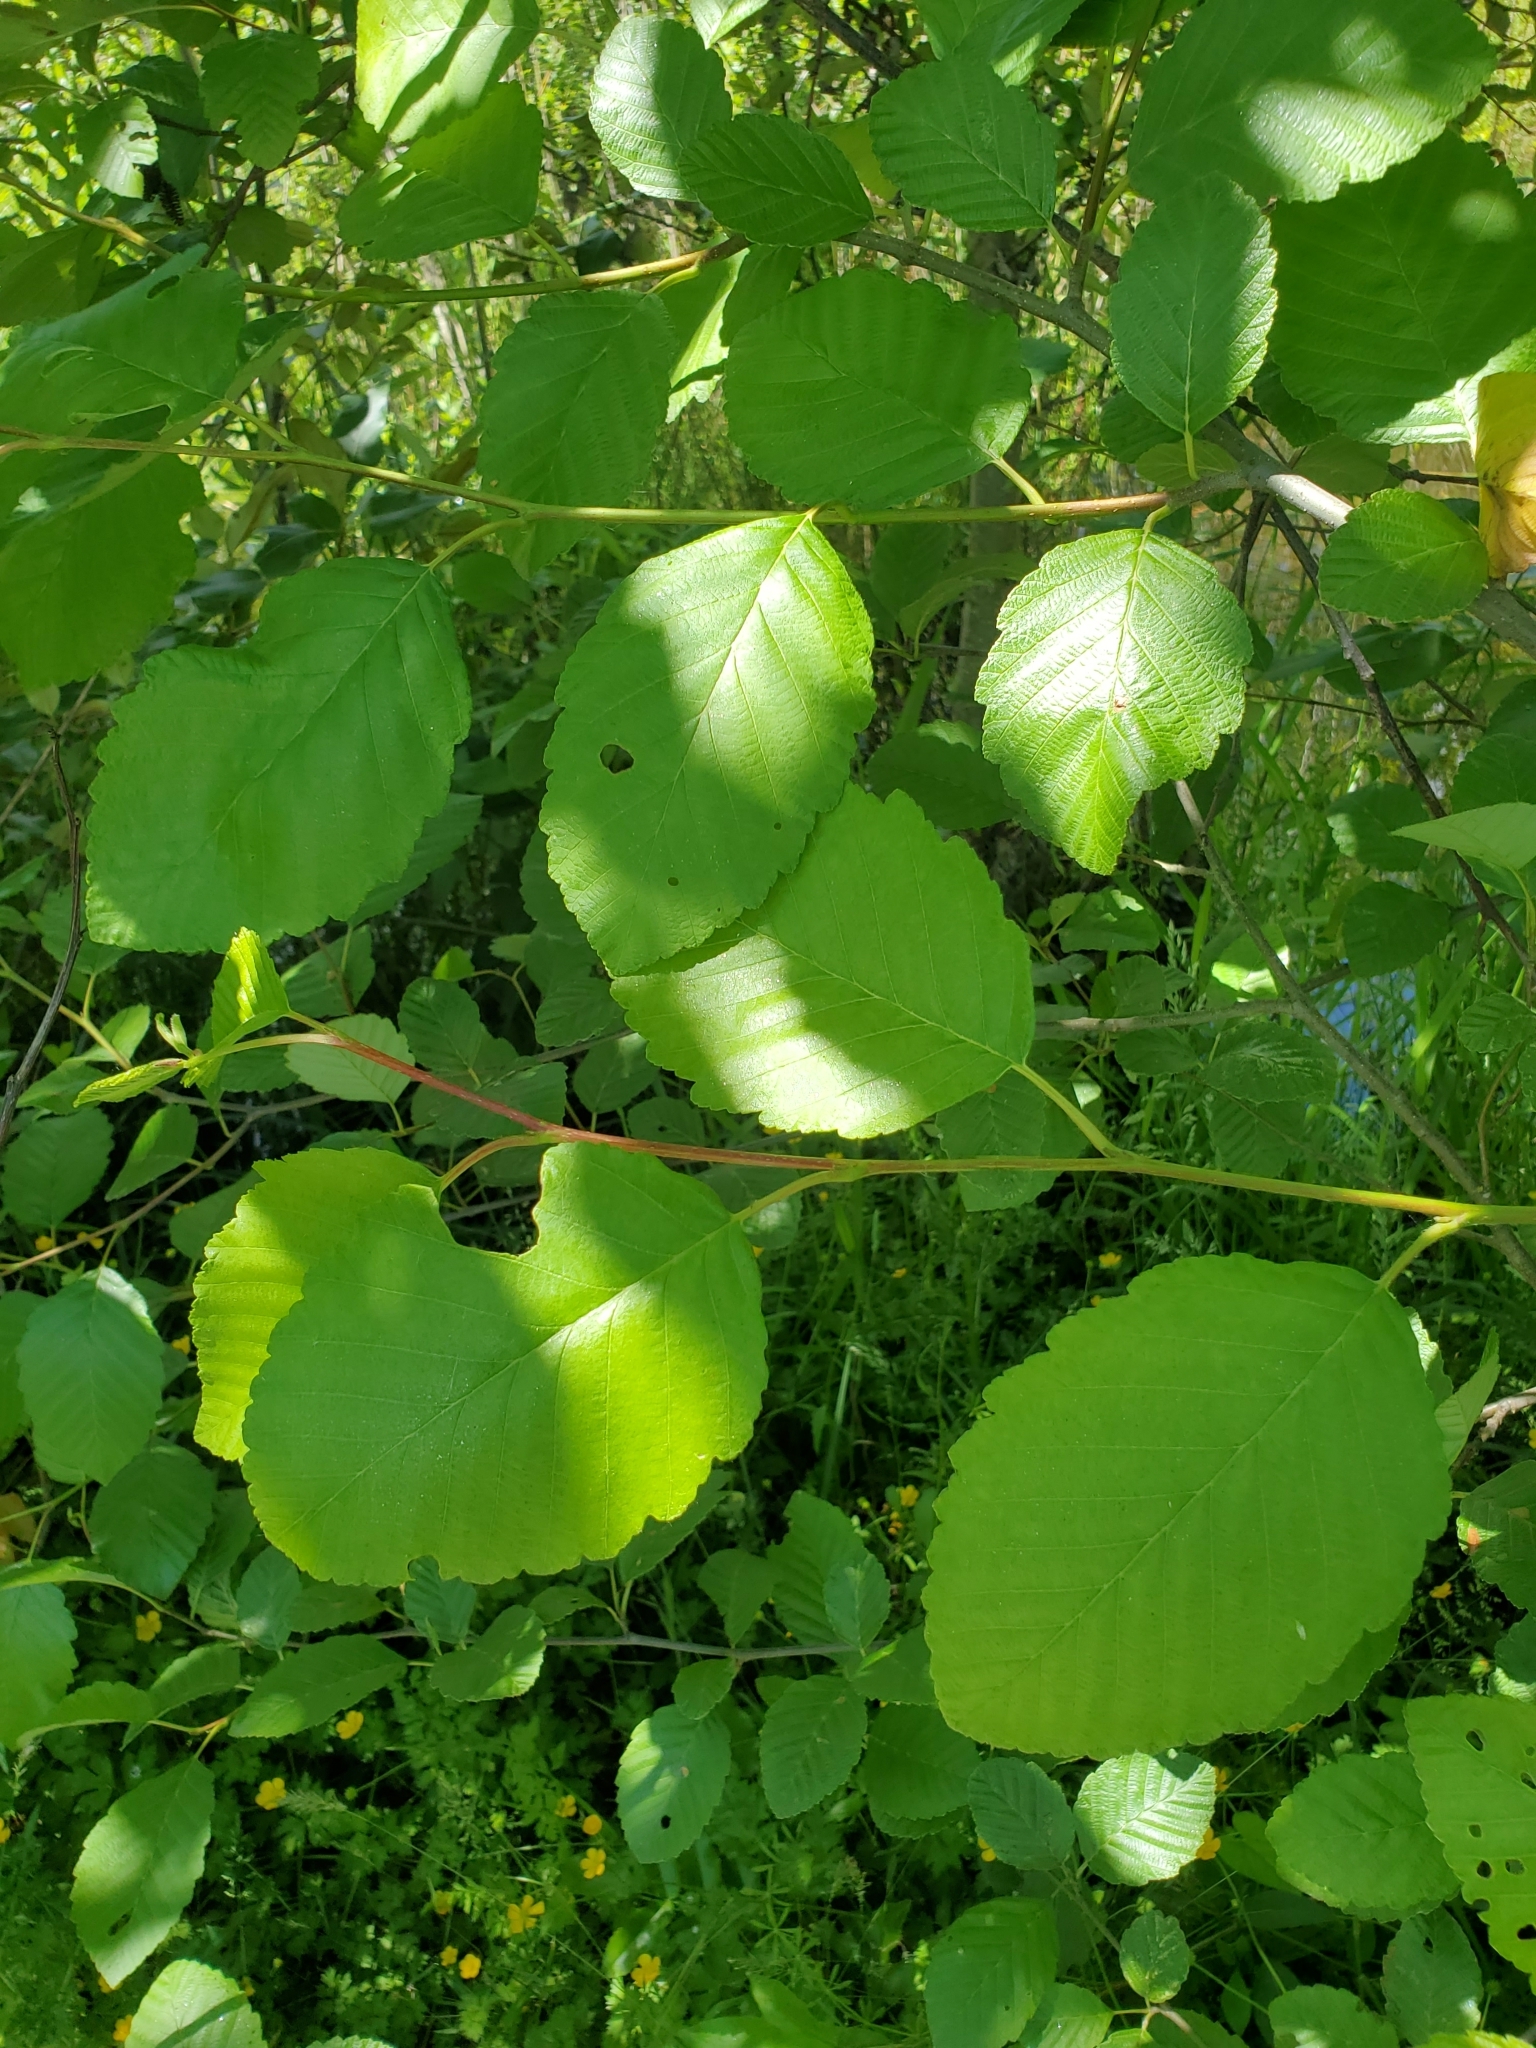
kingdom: Plantae
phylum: Tracheophyta
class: Magnoliopsida
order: Fagales
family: Betulaceae
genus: Alnus
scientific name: Alnus rubra
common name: Red alder
